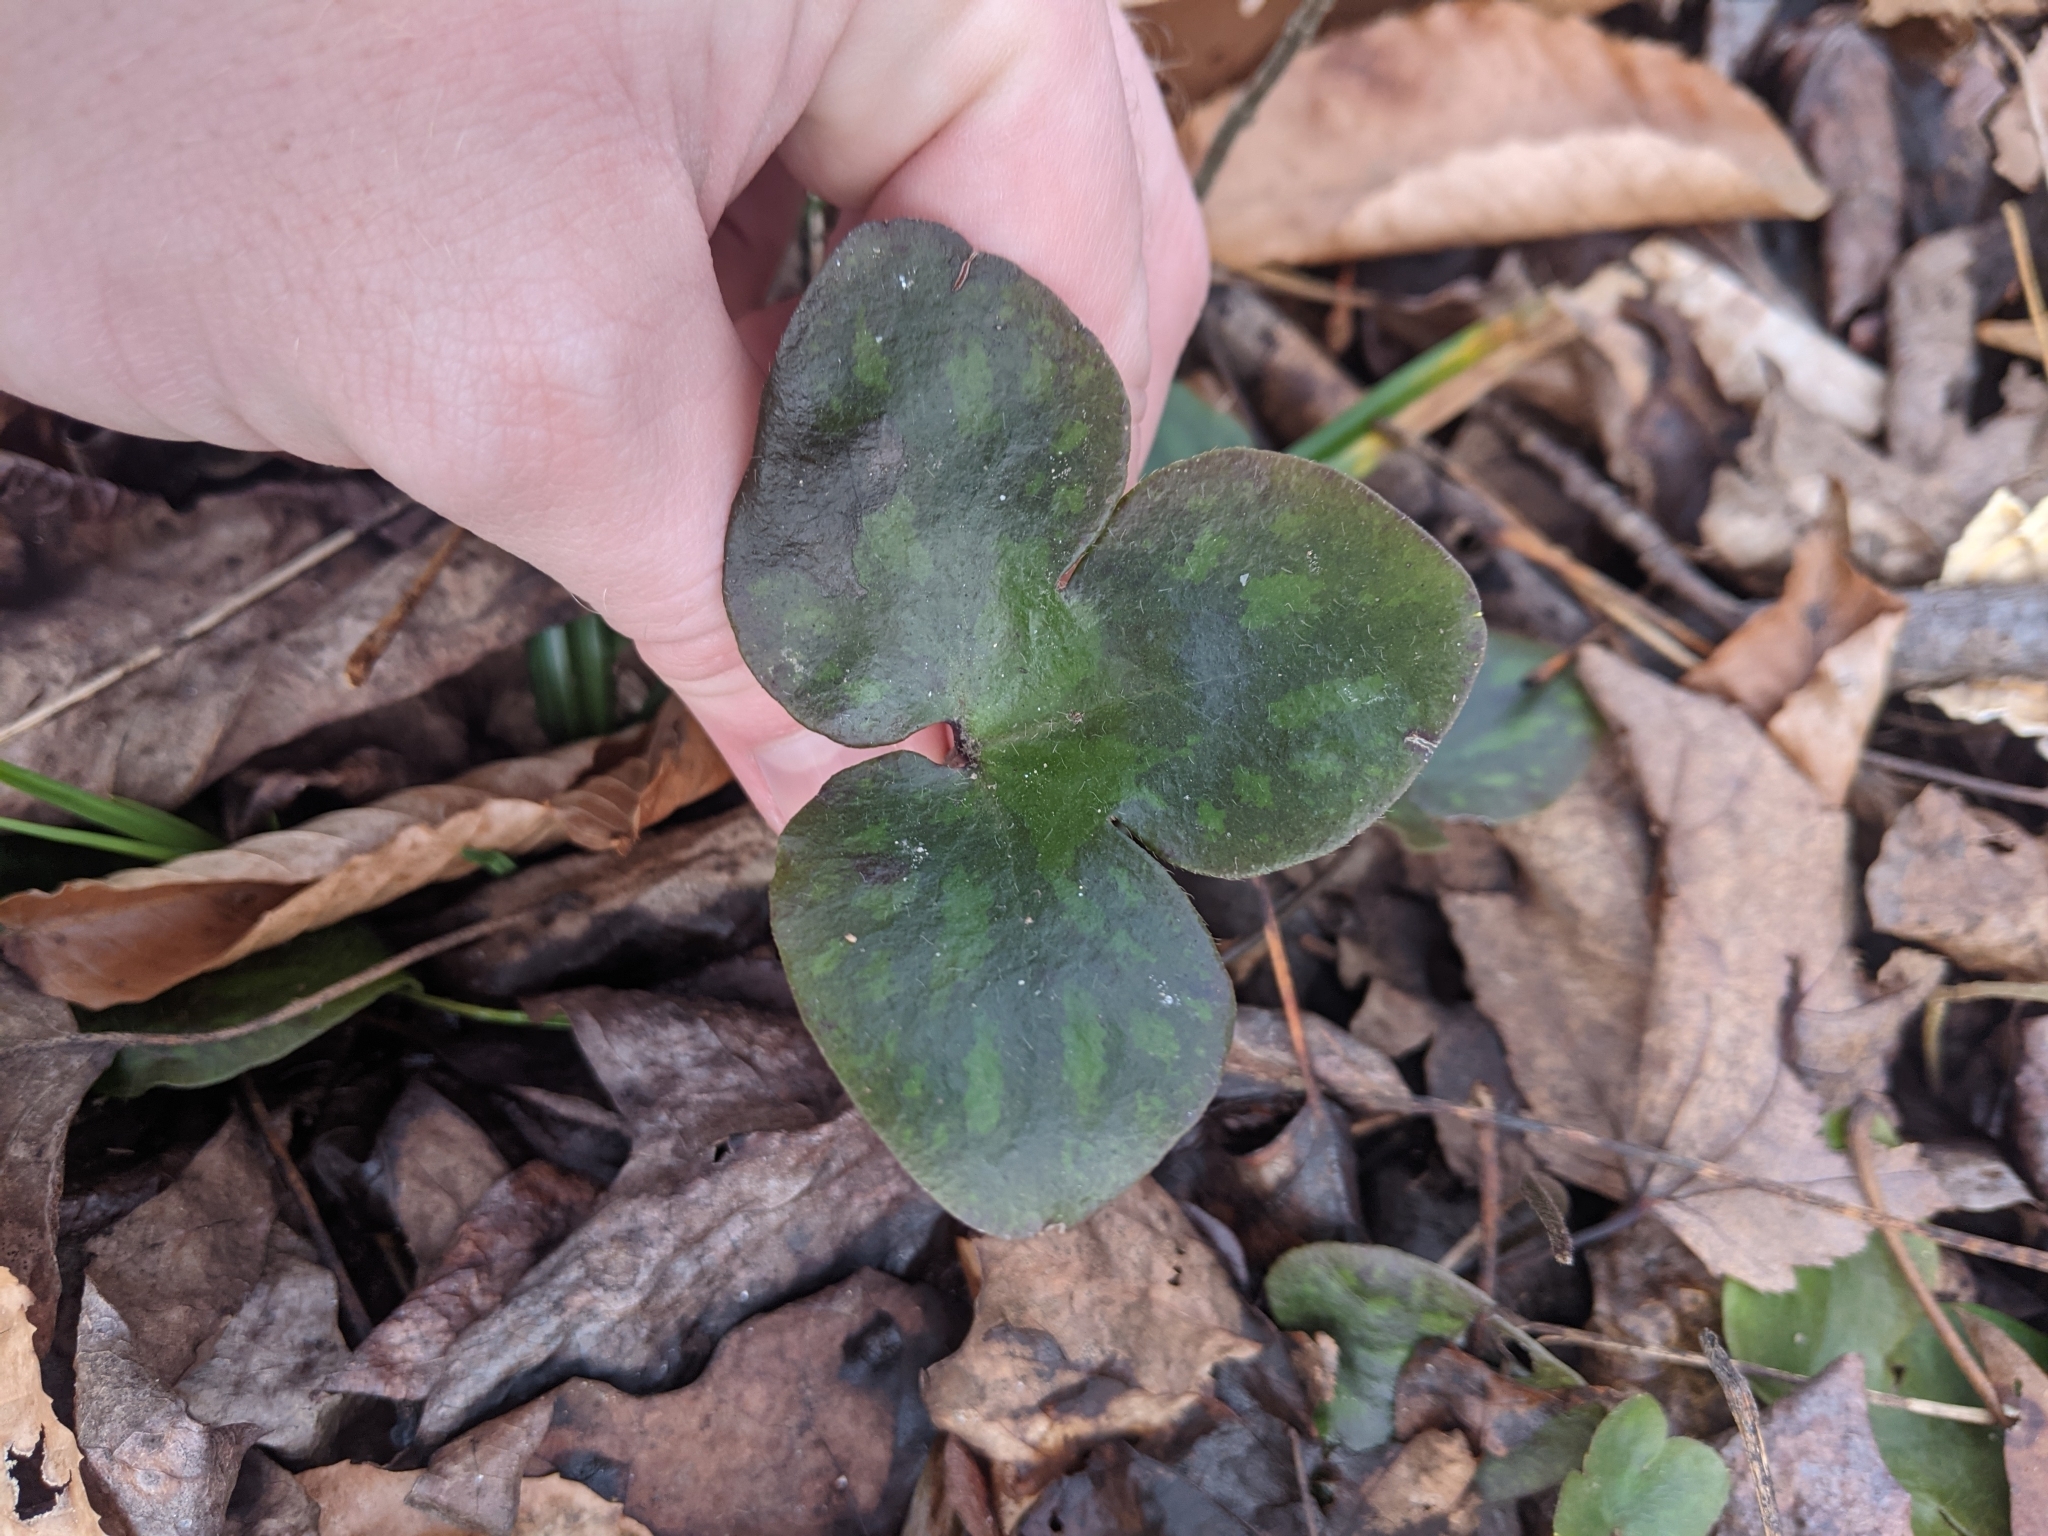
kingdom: Plantae
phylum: Tracheophyta
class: Magnoliopsida
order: Ranunculales
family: Ranunculaceae
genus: Hepatica
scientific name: Hepatica americana
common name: American hepatica
